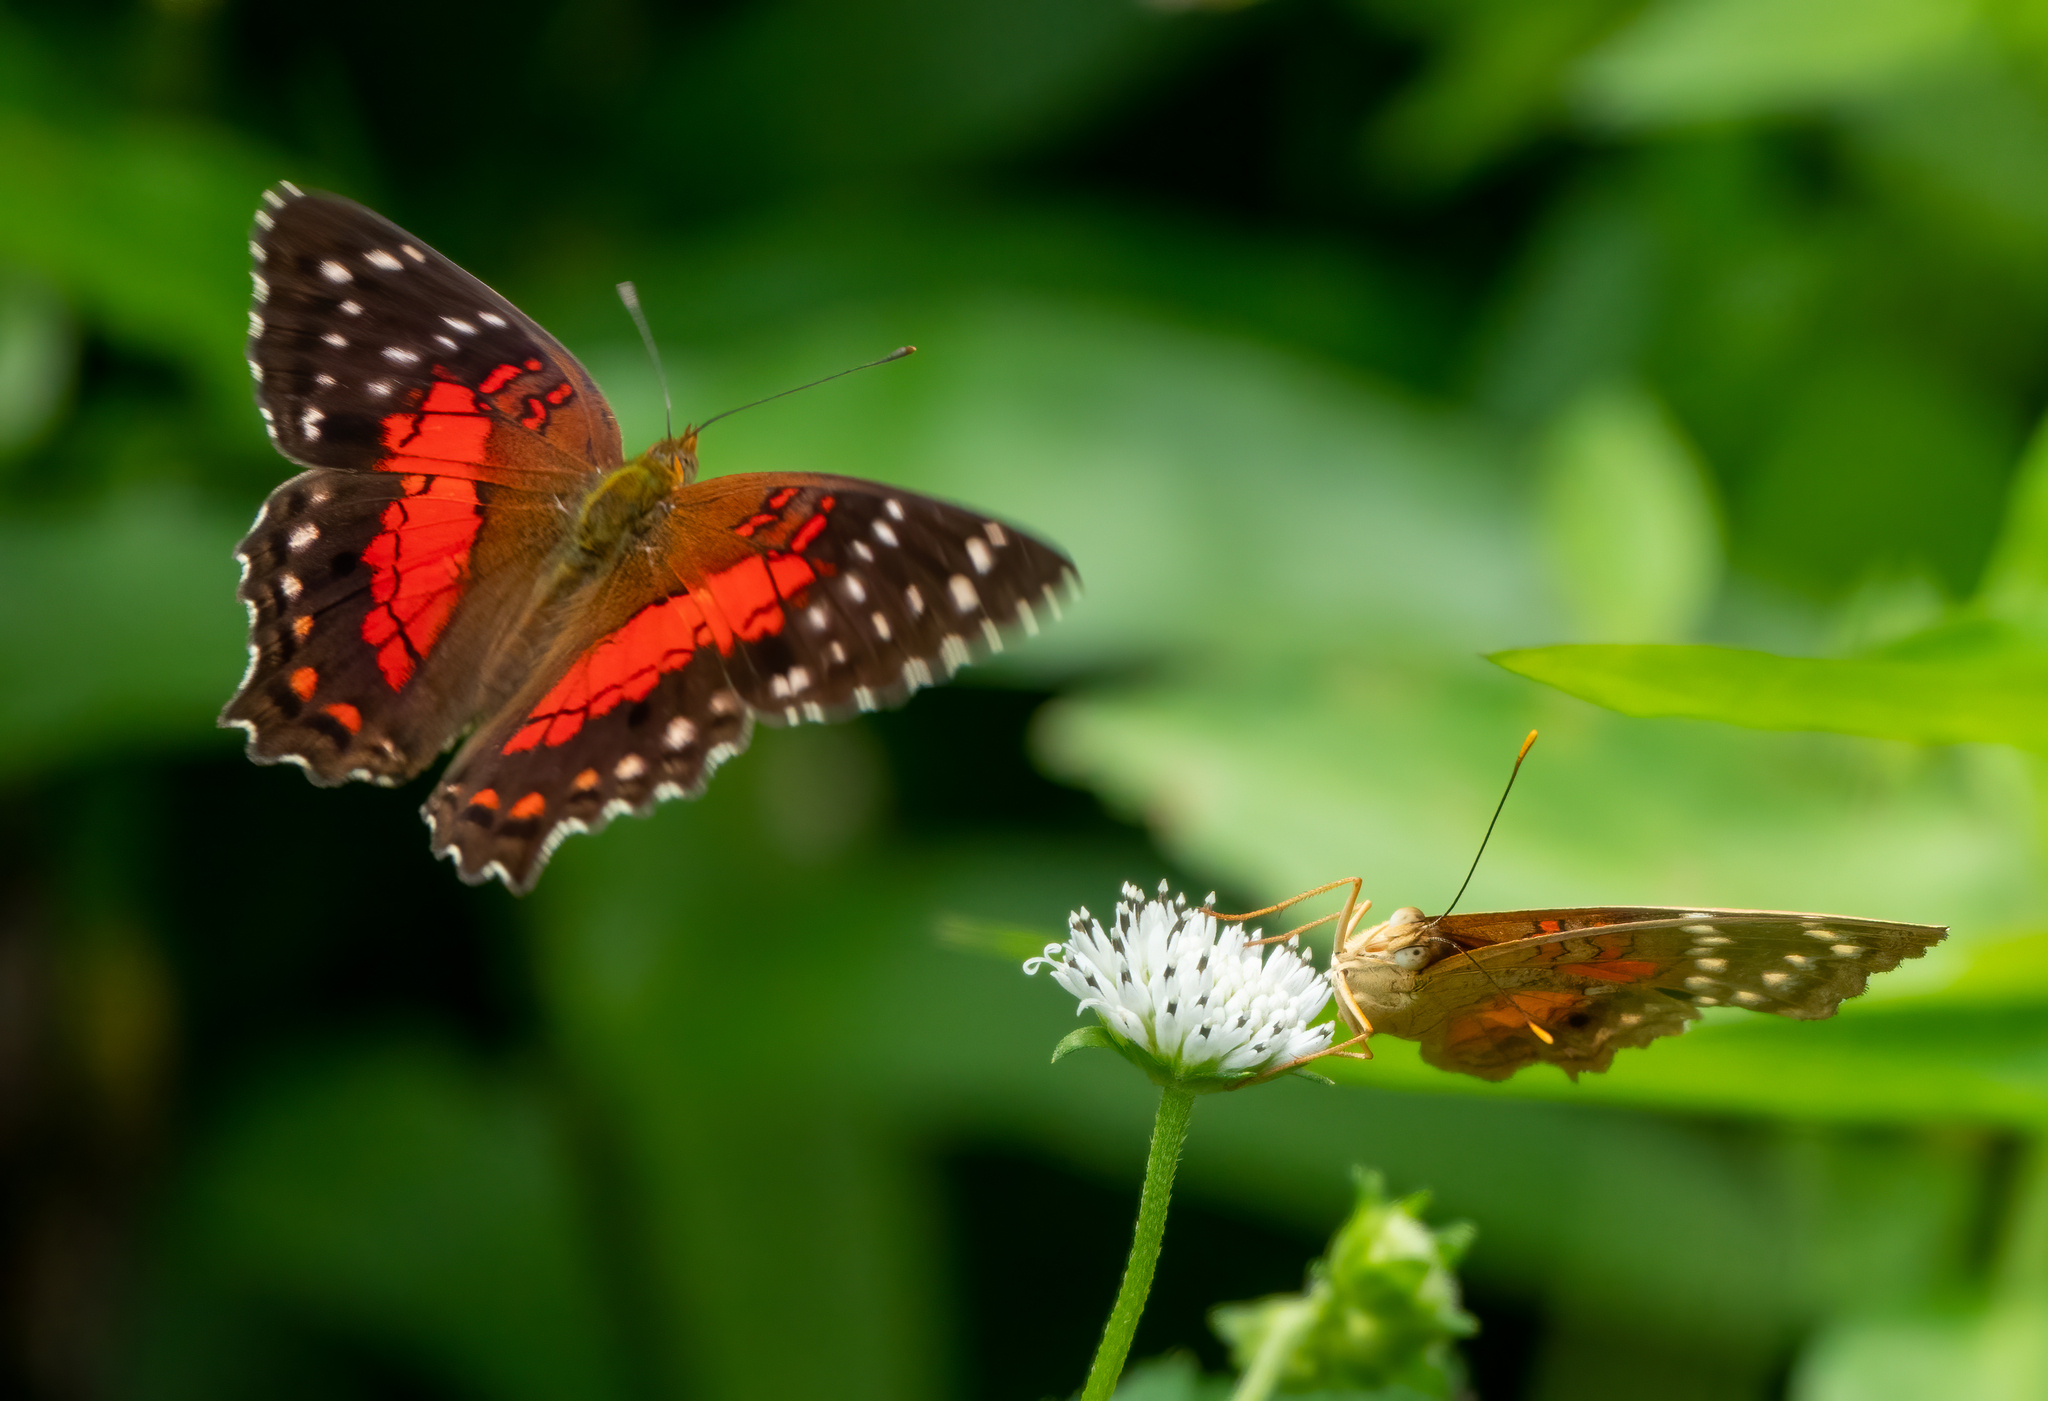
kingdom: Animalia
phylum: Arthropoda
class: Insecta
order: Lepidoptera
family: Nymphalidae
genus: Anartia
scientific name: Anartia amathea
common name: Red peacock
